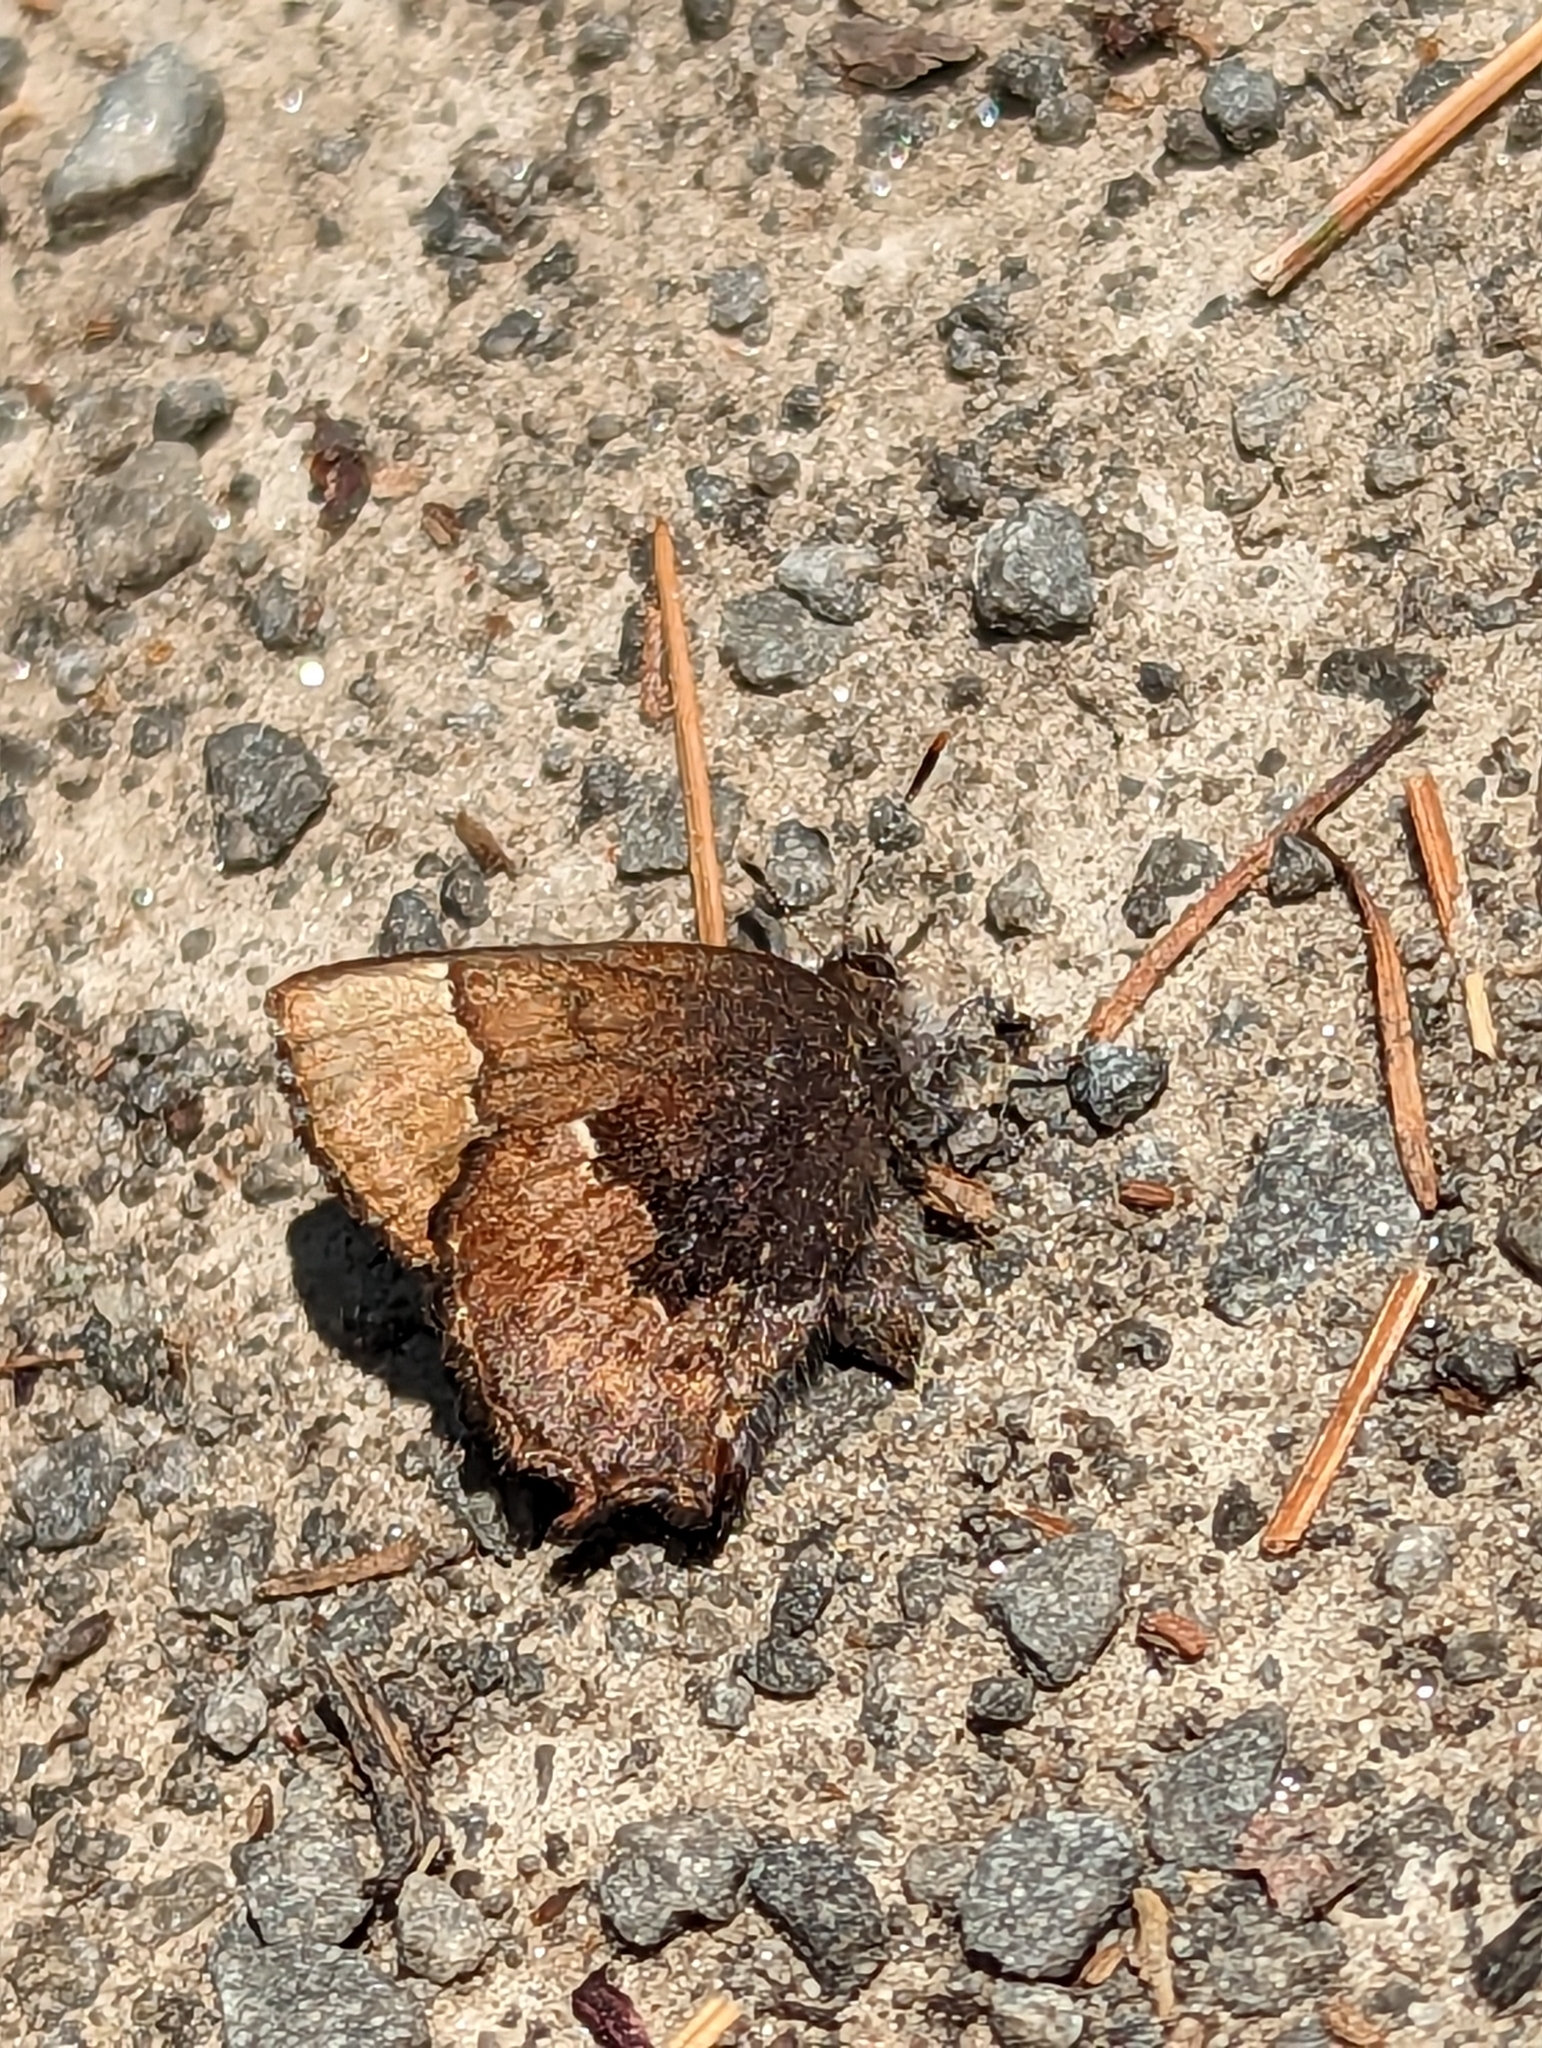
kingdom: Animalia
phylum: Arthropoda
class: Insecta
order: Lepidoptera
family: Lycaenidae
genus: Incisalia
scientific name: Incisalia henrici
